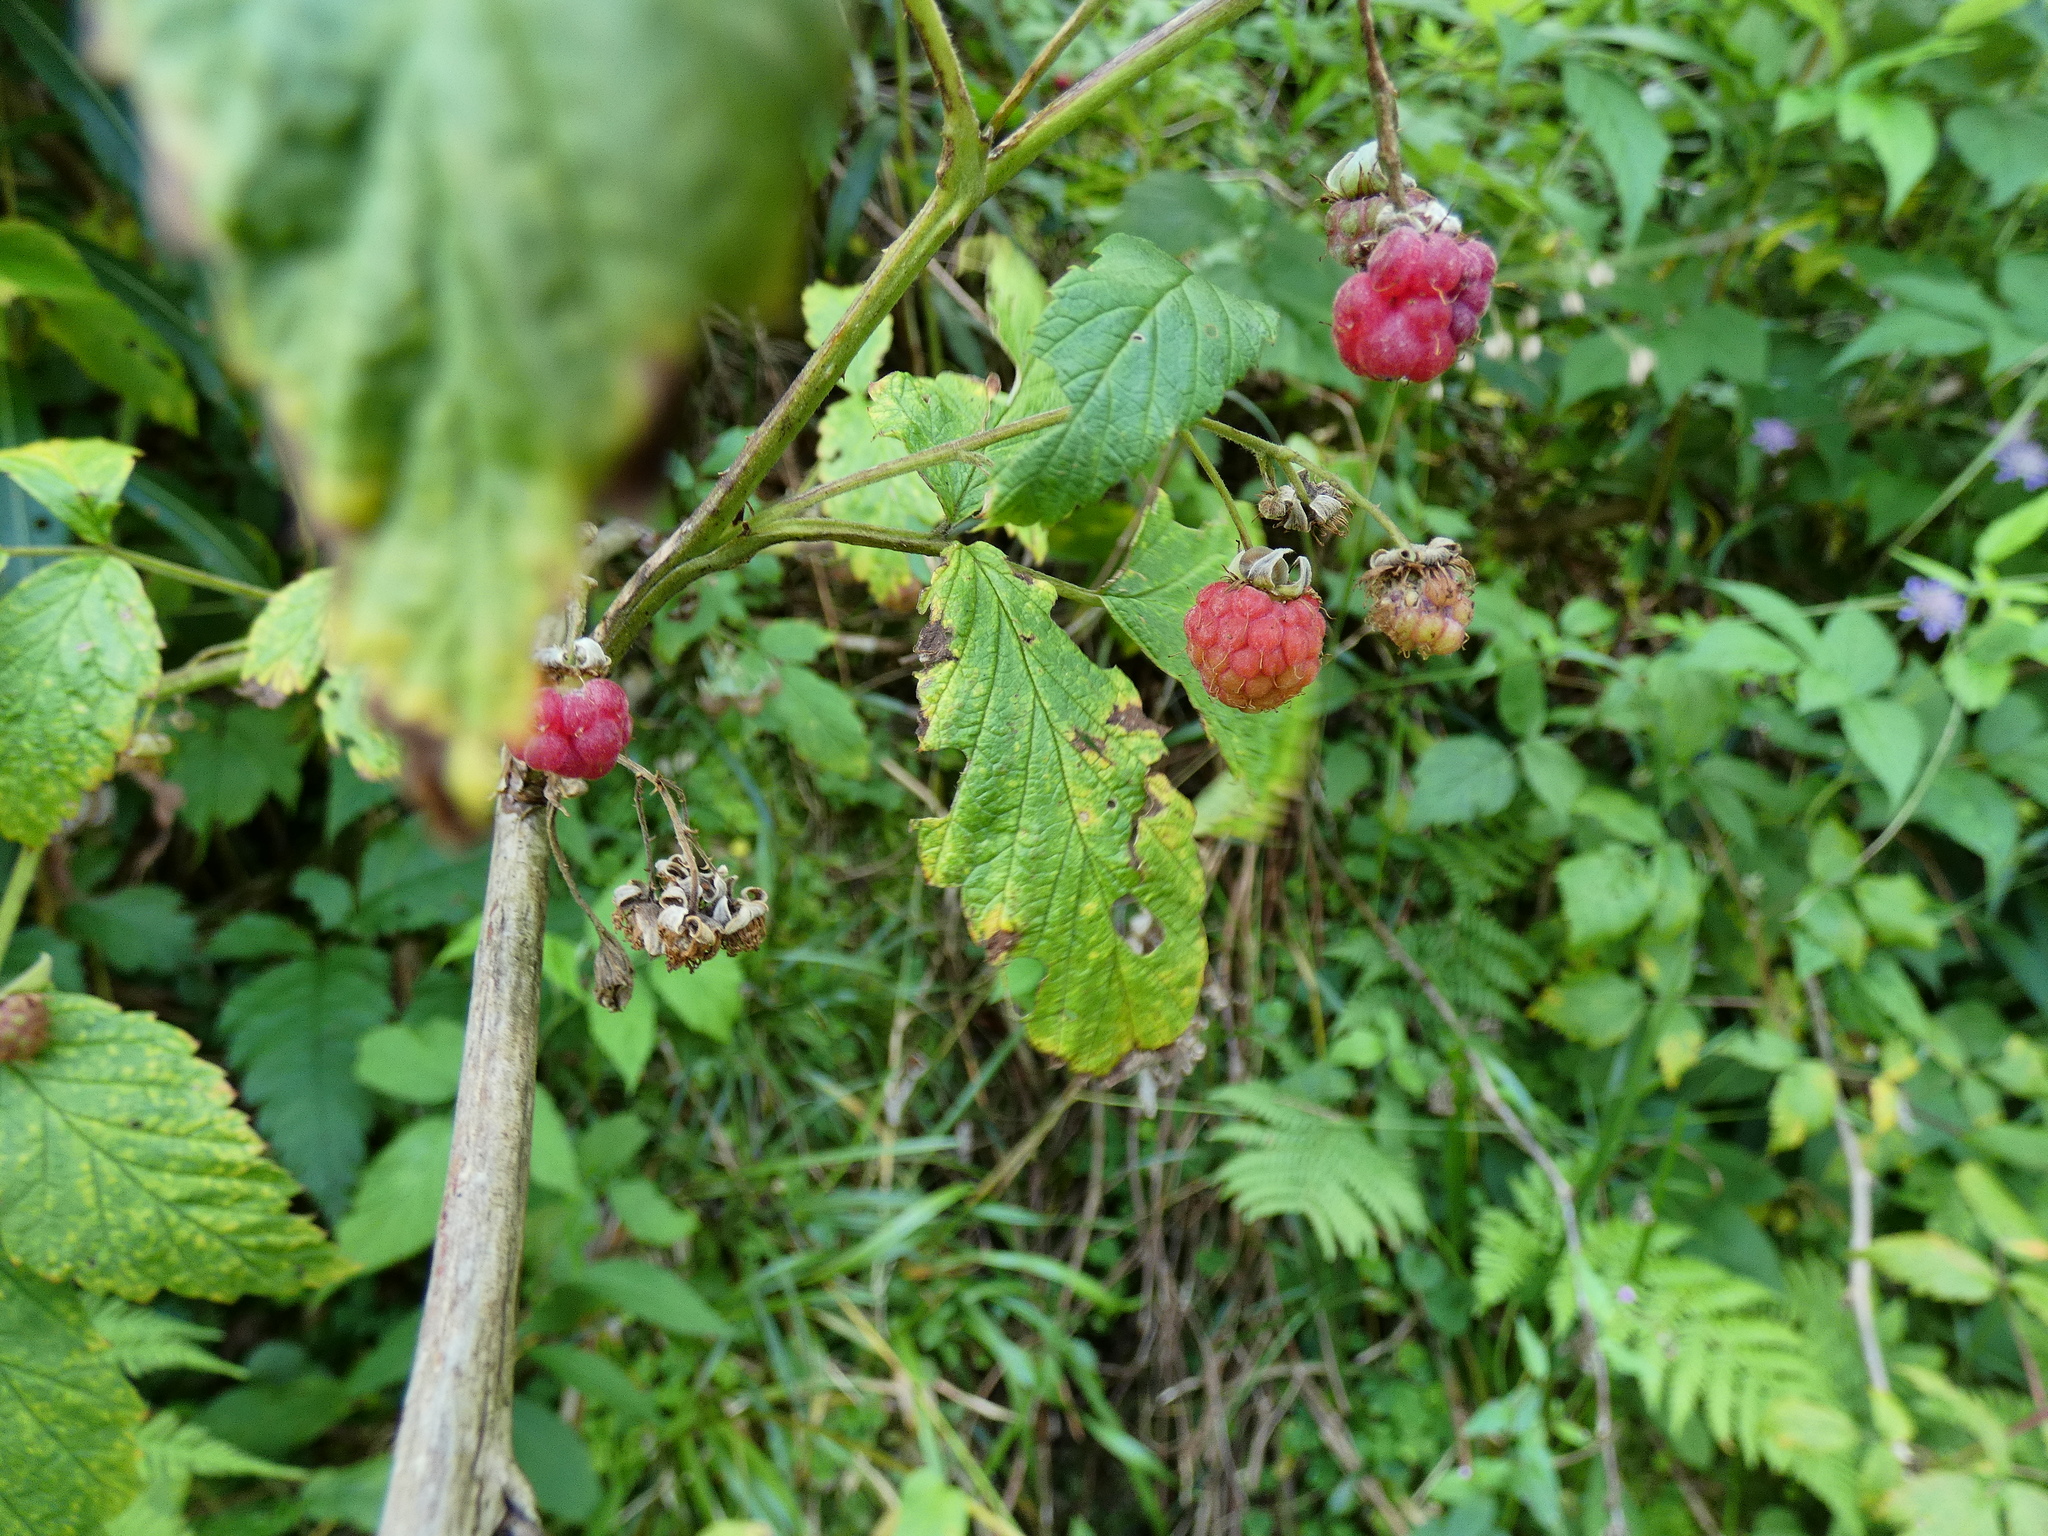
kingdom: Plantae
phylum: Tracheophyta
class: Magnoliopsida
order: Rosales
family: Rosaceae
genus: Rubus
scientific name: Rubus idaeus
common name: Raspberry
